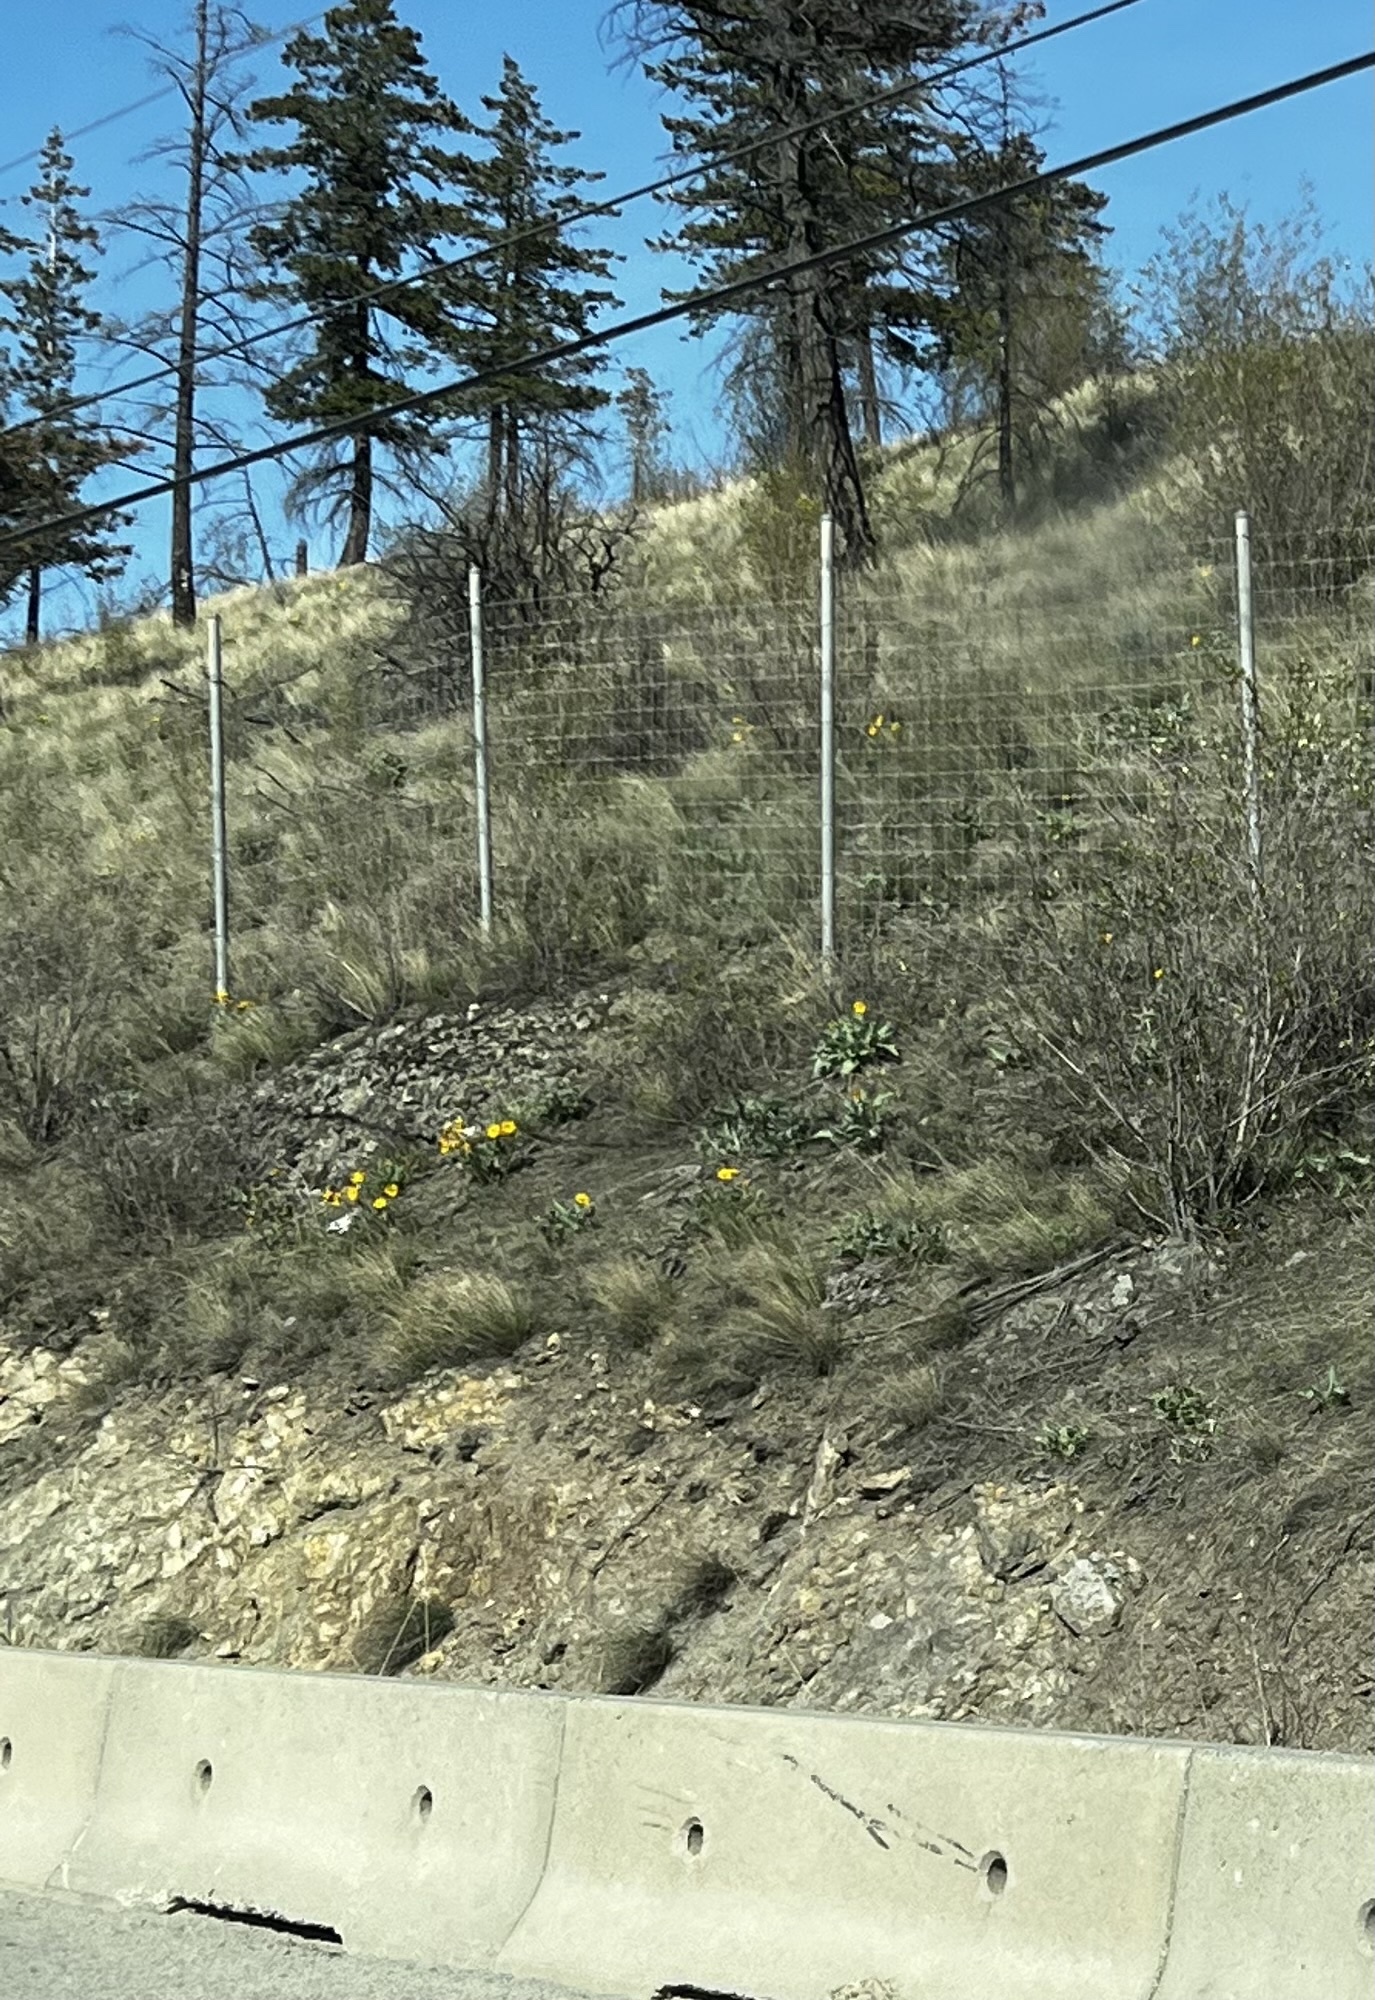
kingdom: Plantae
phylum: Tracheophyta
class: Magnoliopsida
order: Asterales
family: Asteraceae
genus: Wyethia
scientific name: Wyethia sagittata
